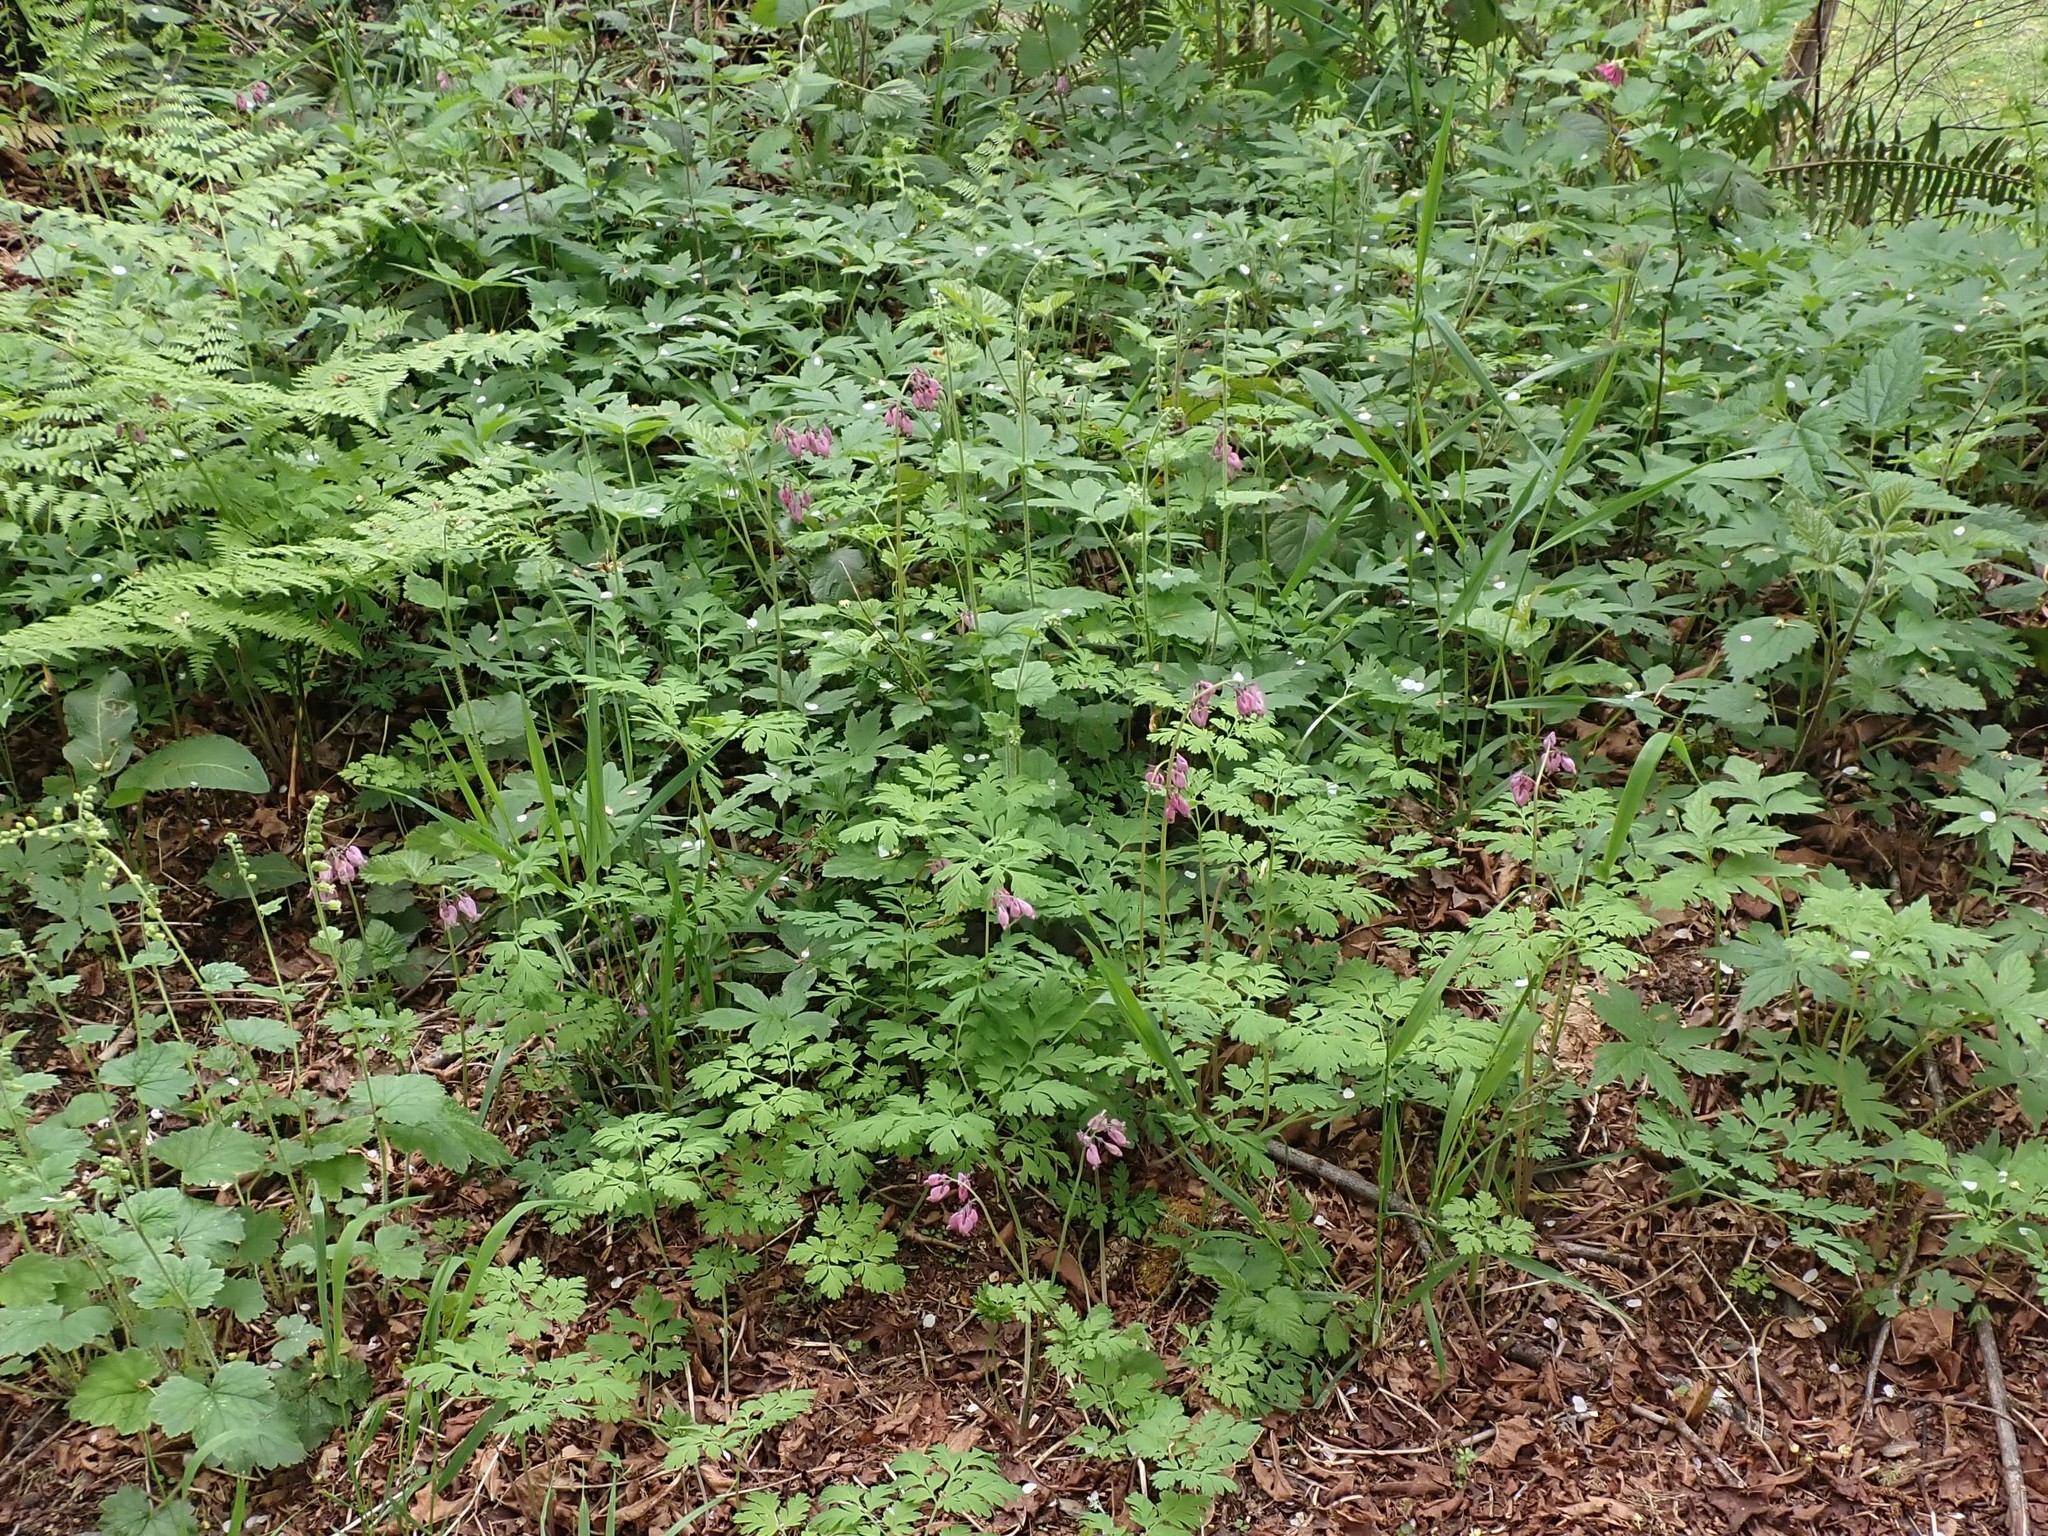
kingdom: Plantae
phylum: Tracheophyta
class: Magnoliopsida
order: Ranunculales
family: Papaveraceae
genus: Dicentra
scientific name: Dicentra formosa
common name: Bleeding-heart
